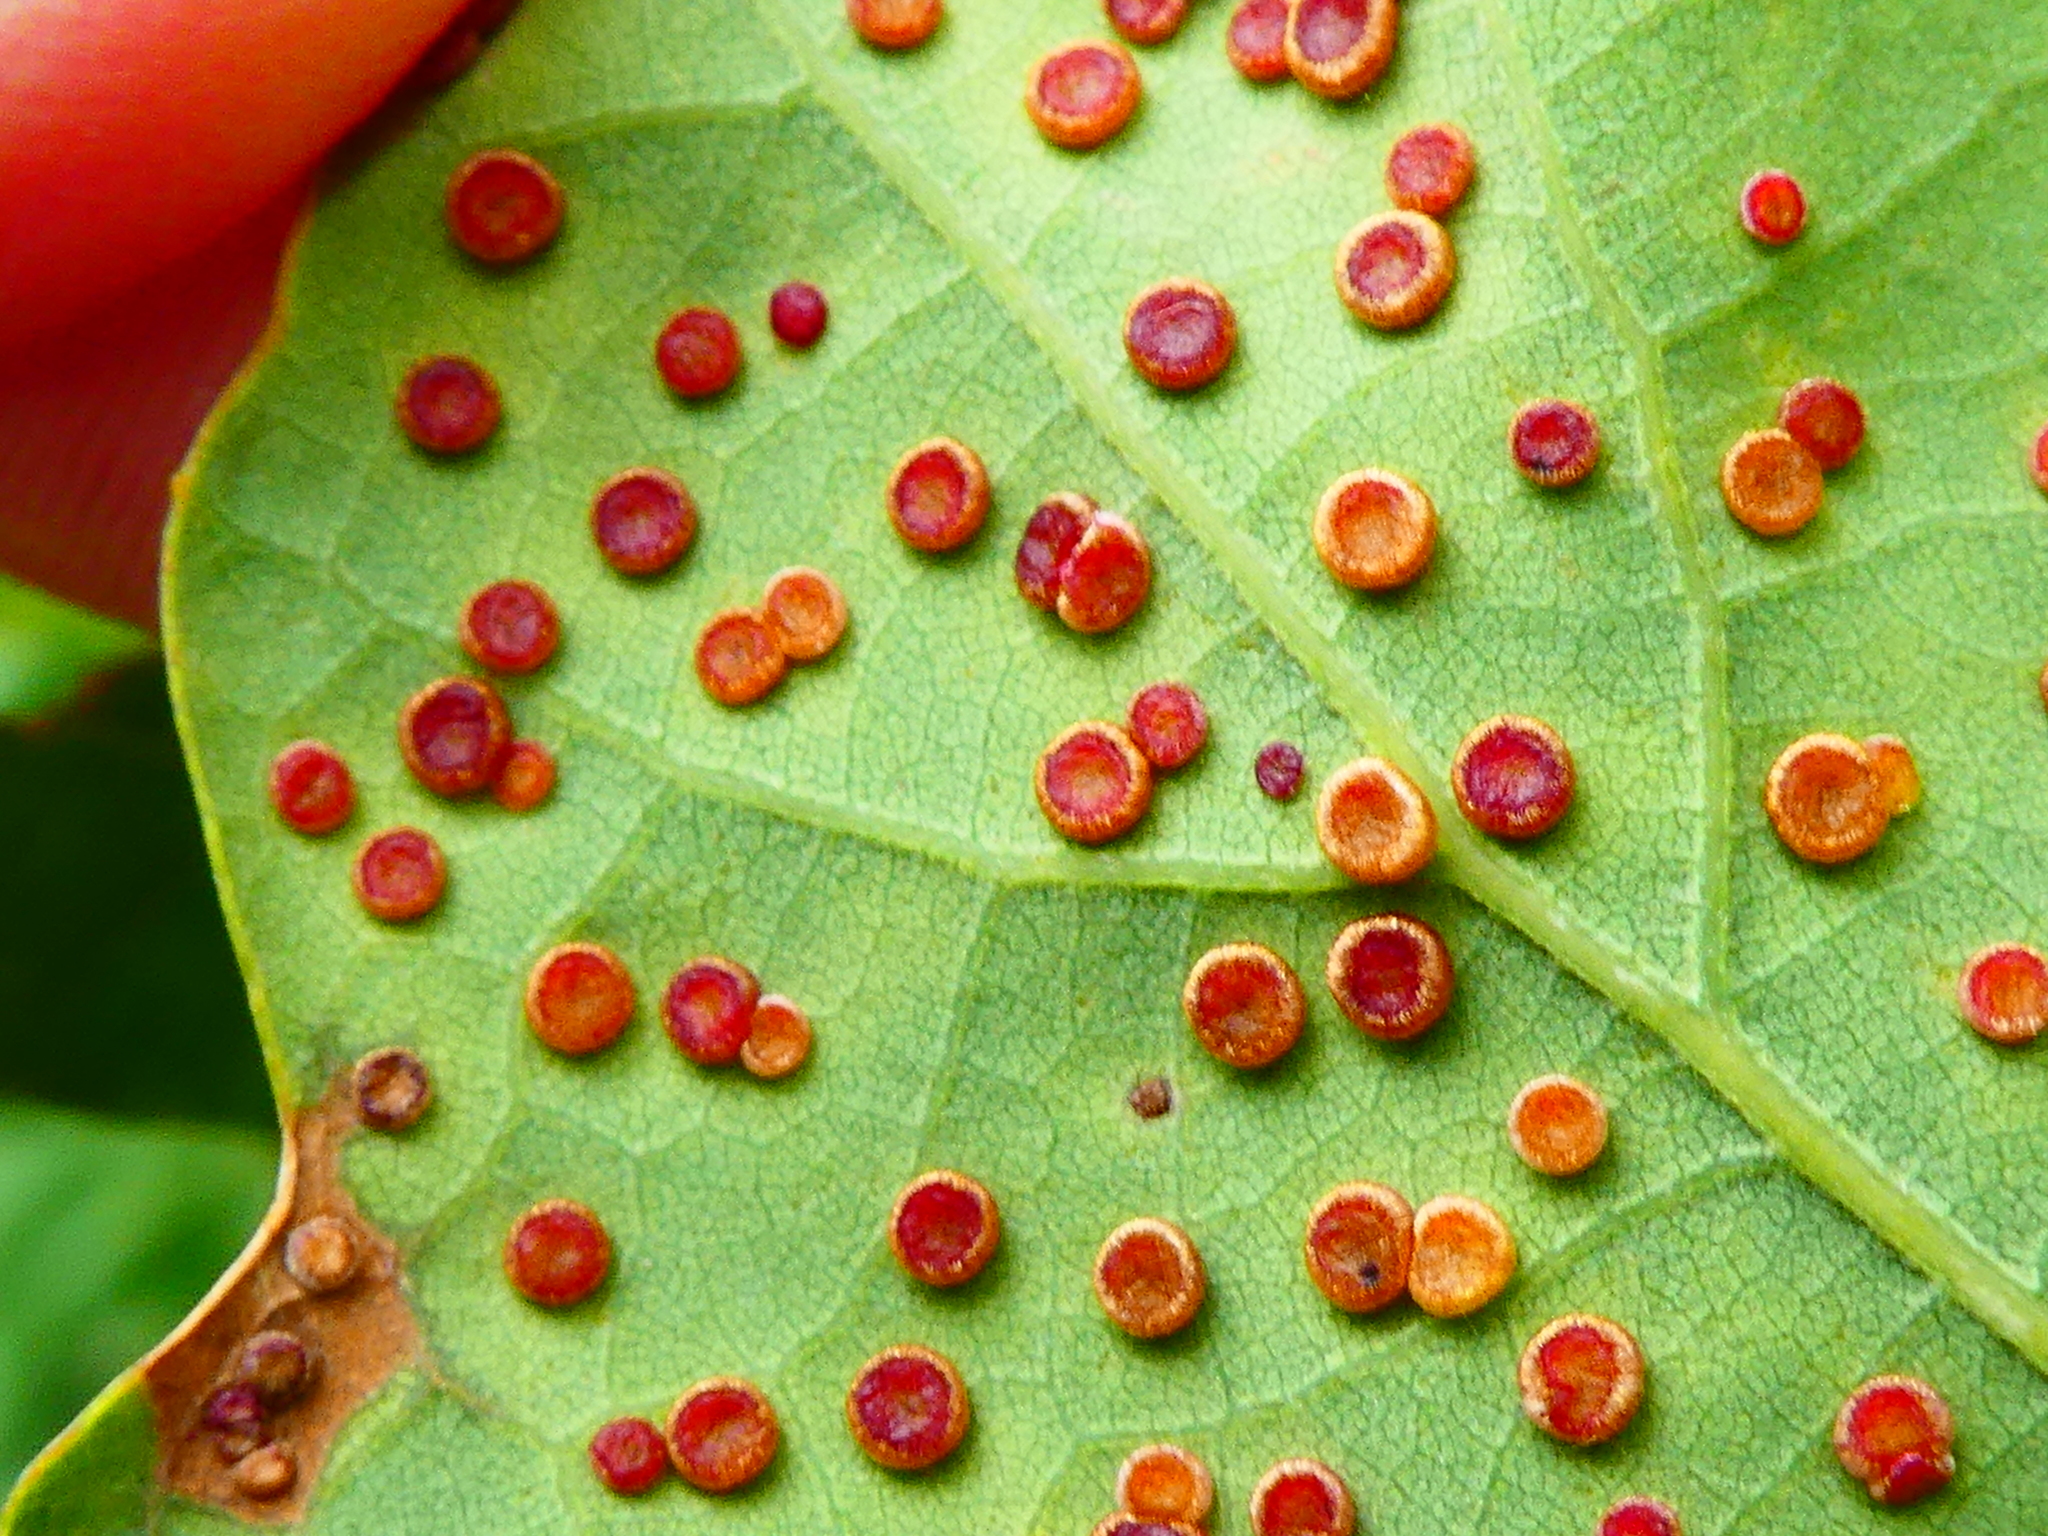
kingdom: Animalia
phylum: Arthropoda
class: Insecta
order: Hymenoptera
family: Cynipidae
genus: Neuroterus
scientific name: Neuroterus numismalis
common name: Silk-button spangle gall
